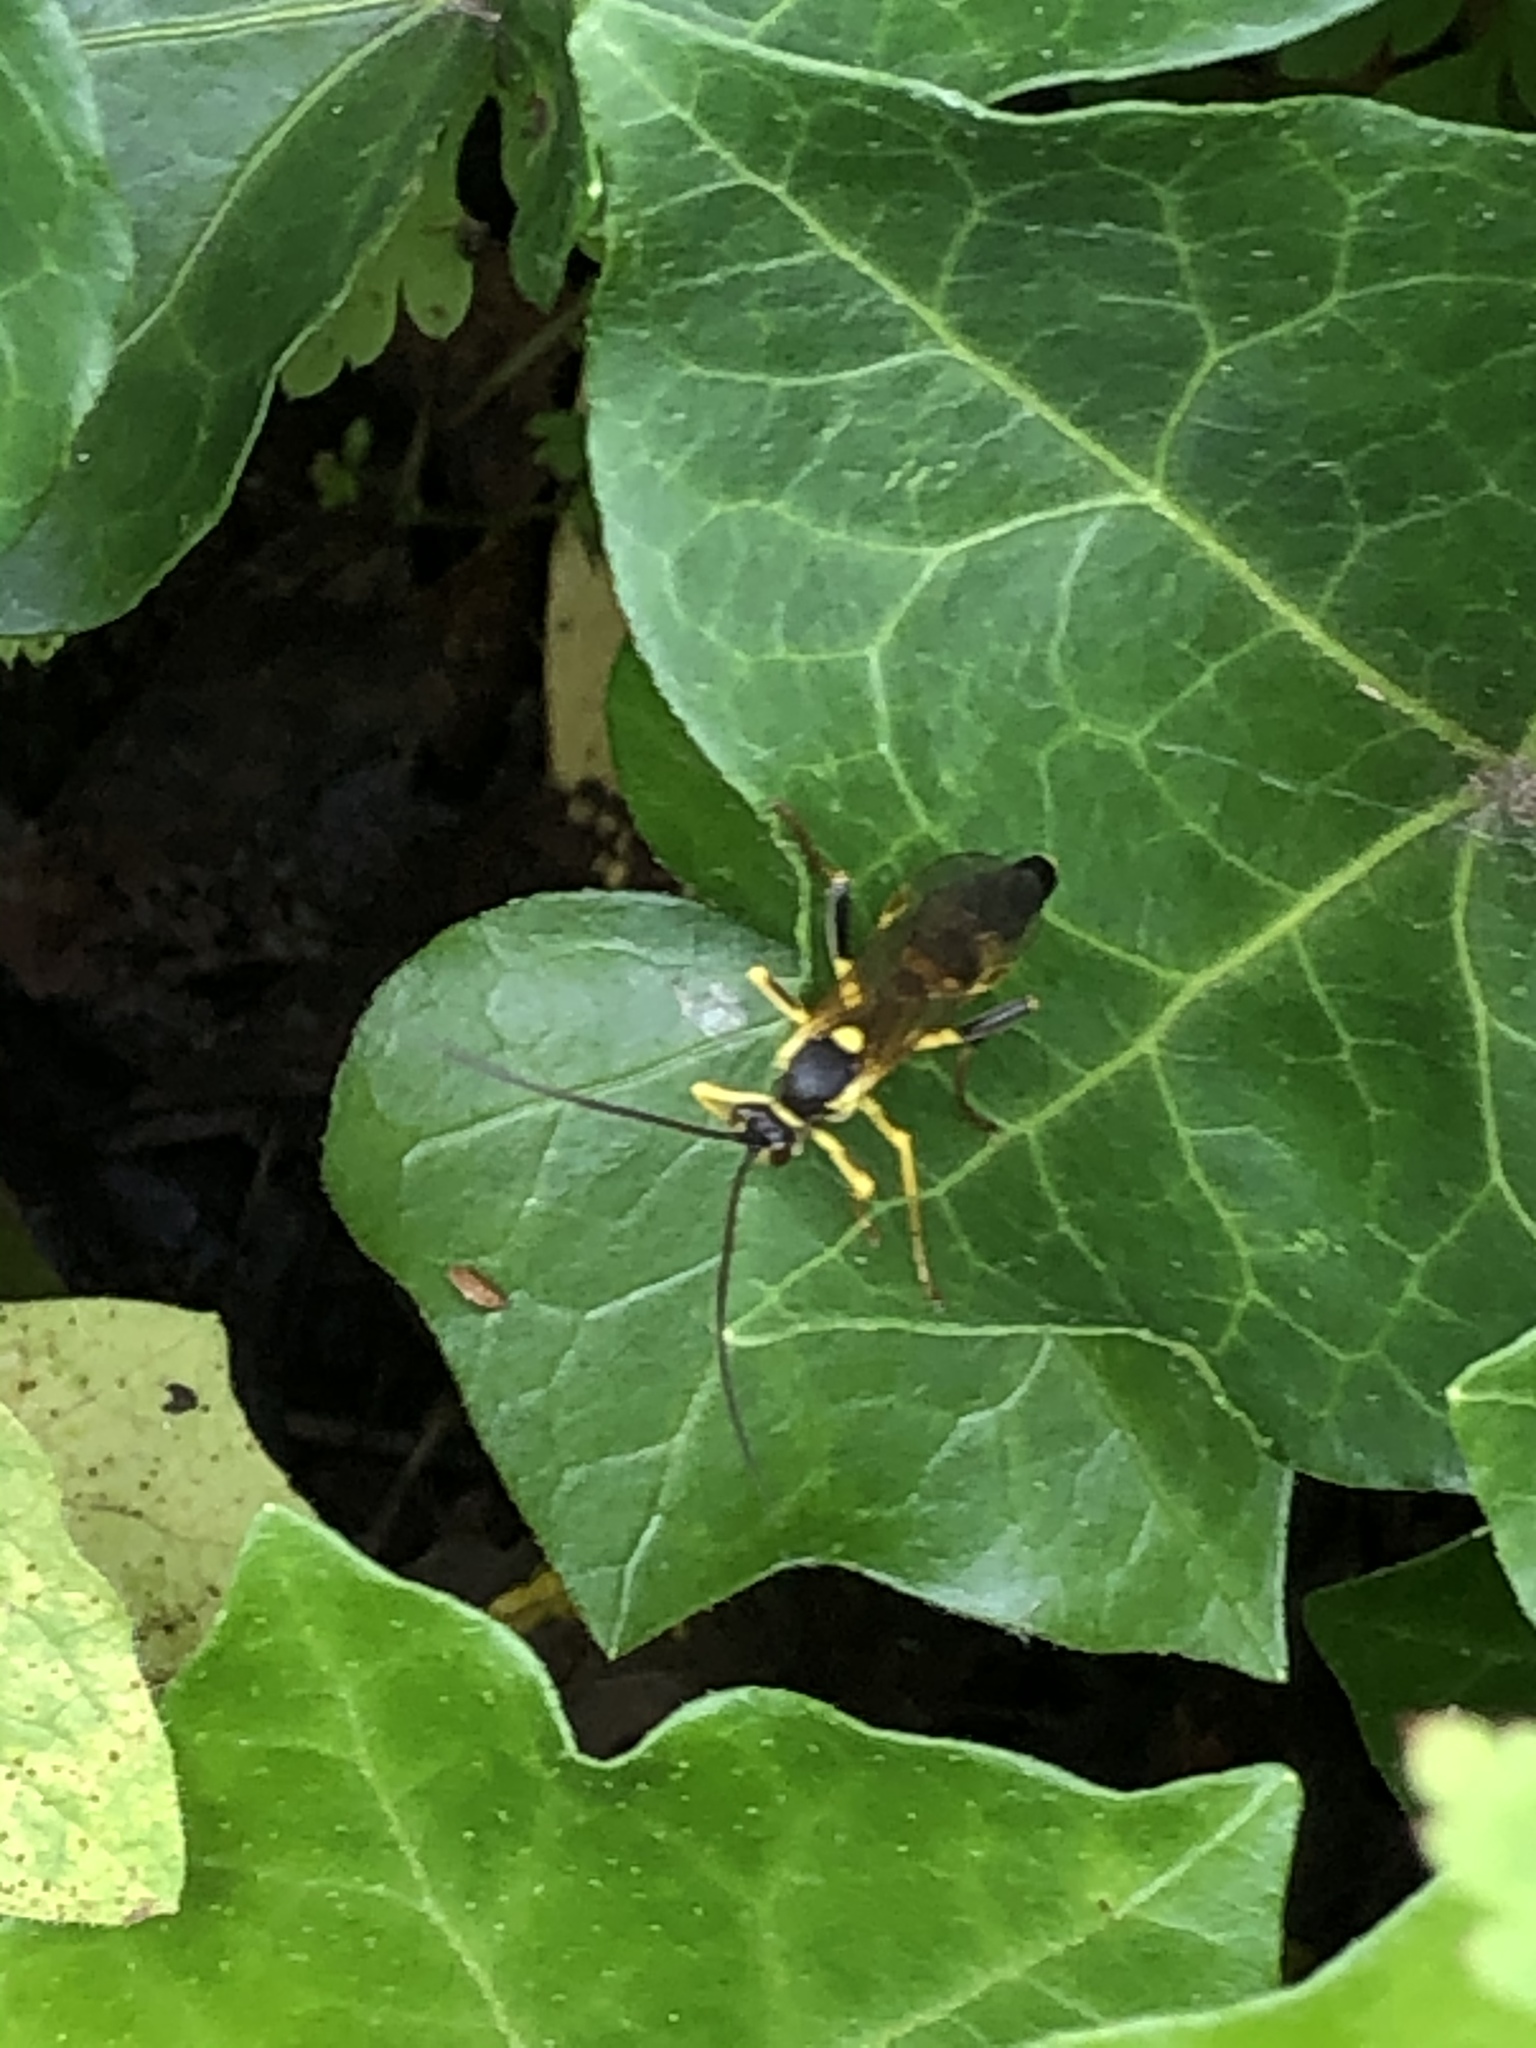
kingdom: Animalia
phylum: Arthropoda
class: Insecta
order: Hymenoptera
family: Ichneumonidae
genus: Amblyteles
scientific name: Amblyteles armatorius
